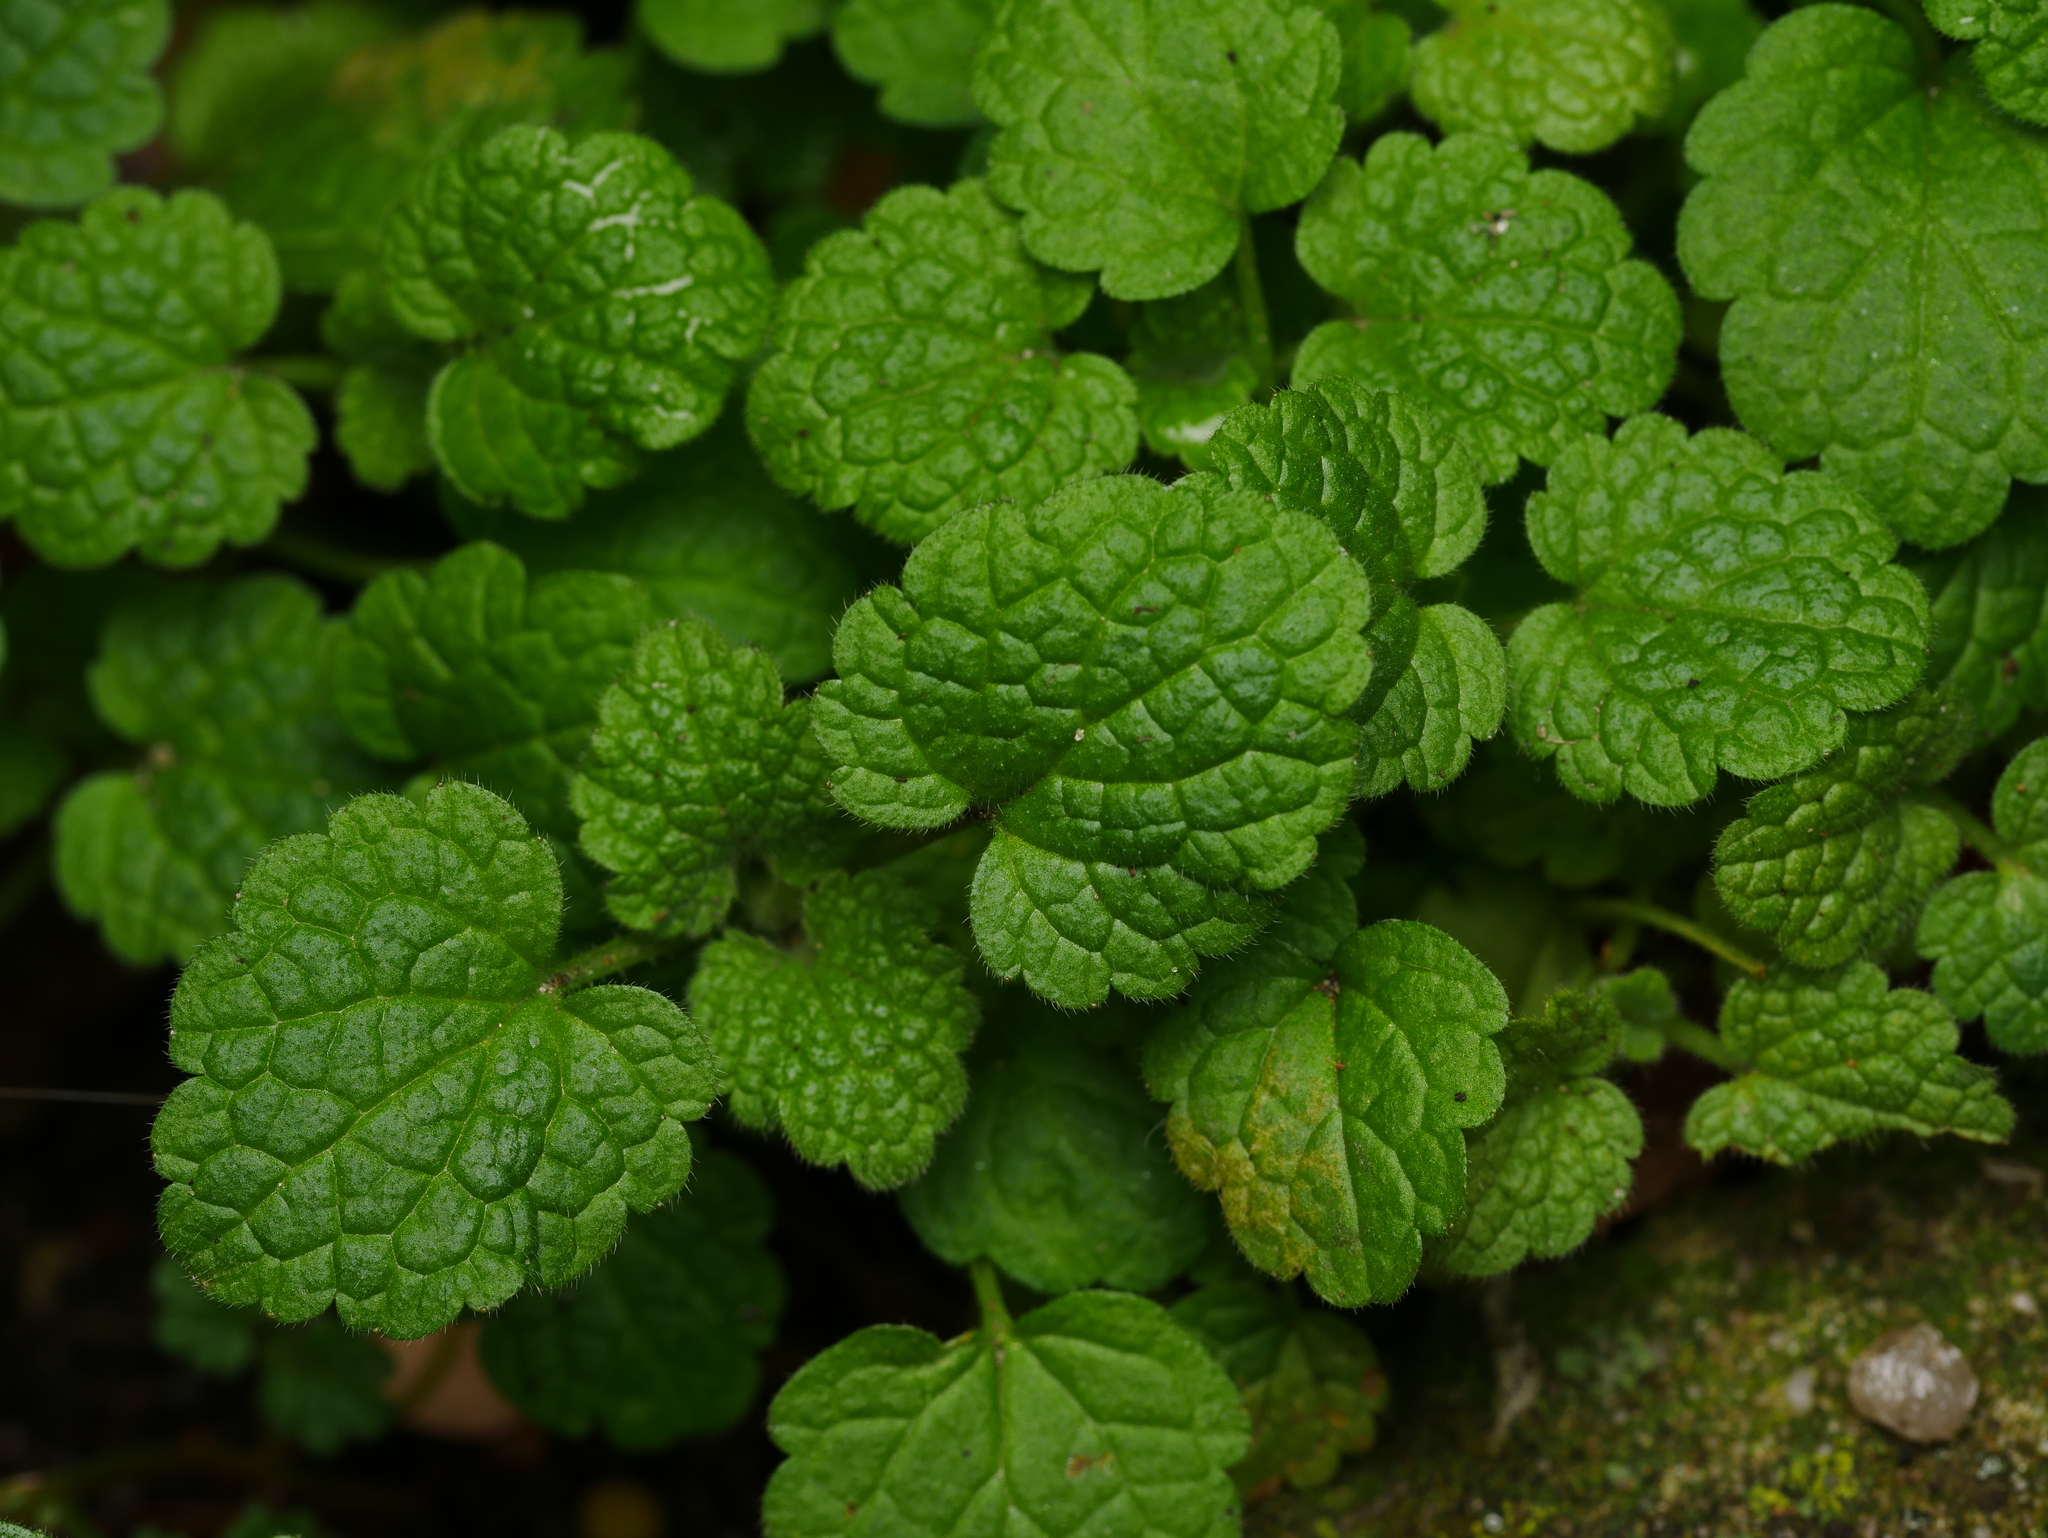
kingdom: Plantae
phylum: Tracheophyta
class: Magnoliopsida
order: Lamiales
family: Lamiaceae
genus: Lamium
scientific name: Lamium purpureum
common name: Red dead-nettle
